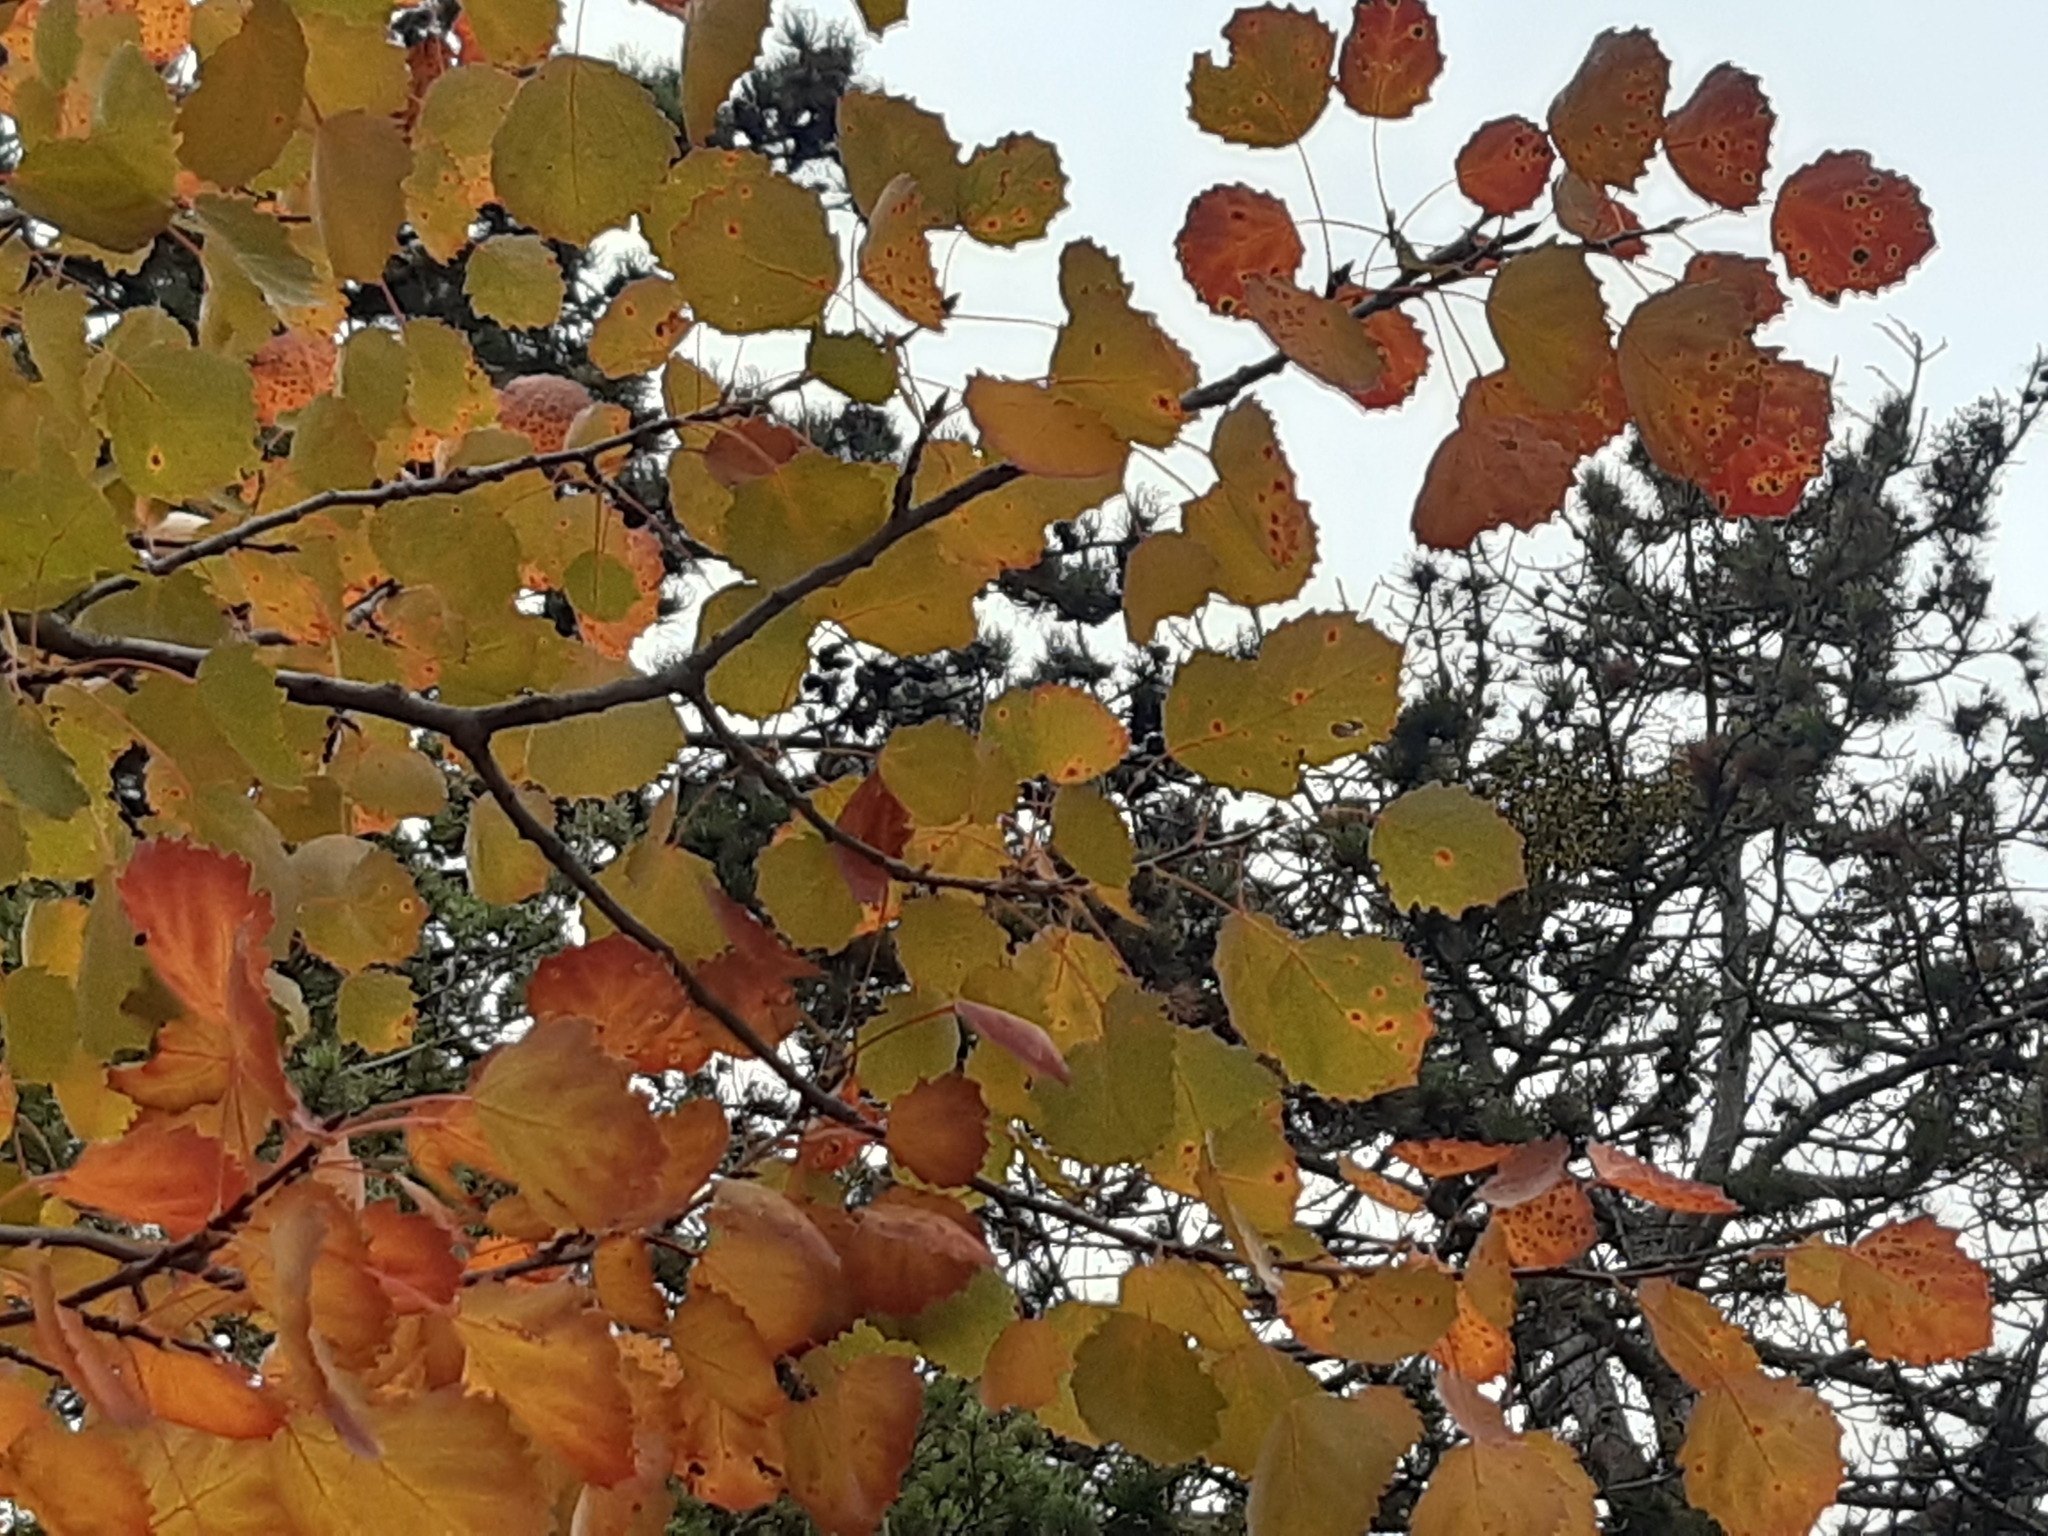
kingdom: Plantae
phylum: Tracheophyta
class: Magnoliopsida
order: Malpighiales
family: Salicaceae
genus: Populus
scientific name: Populus tremula
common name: European aspen
